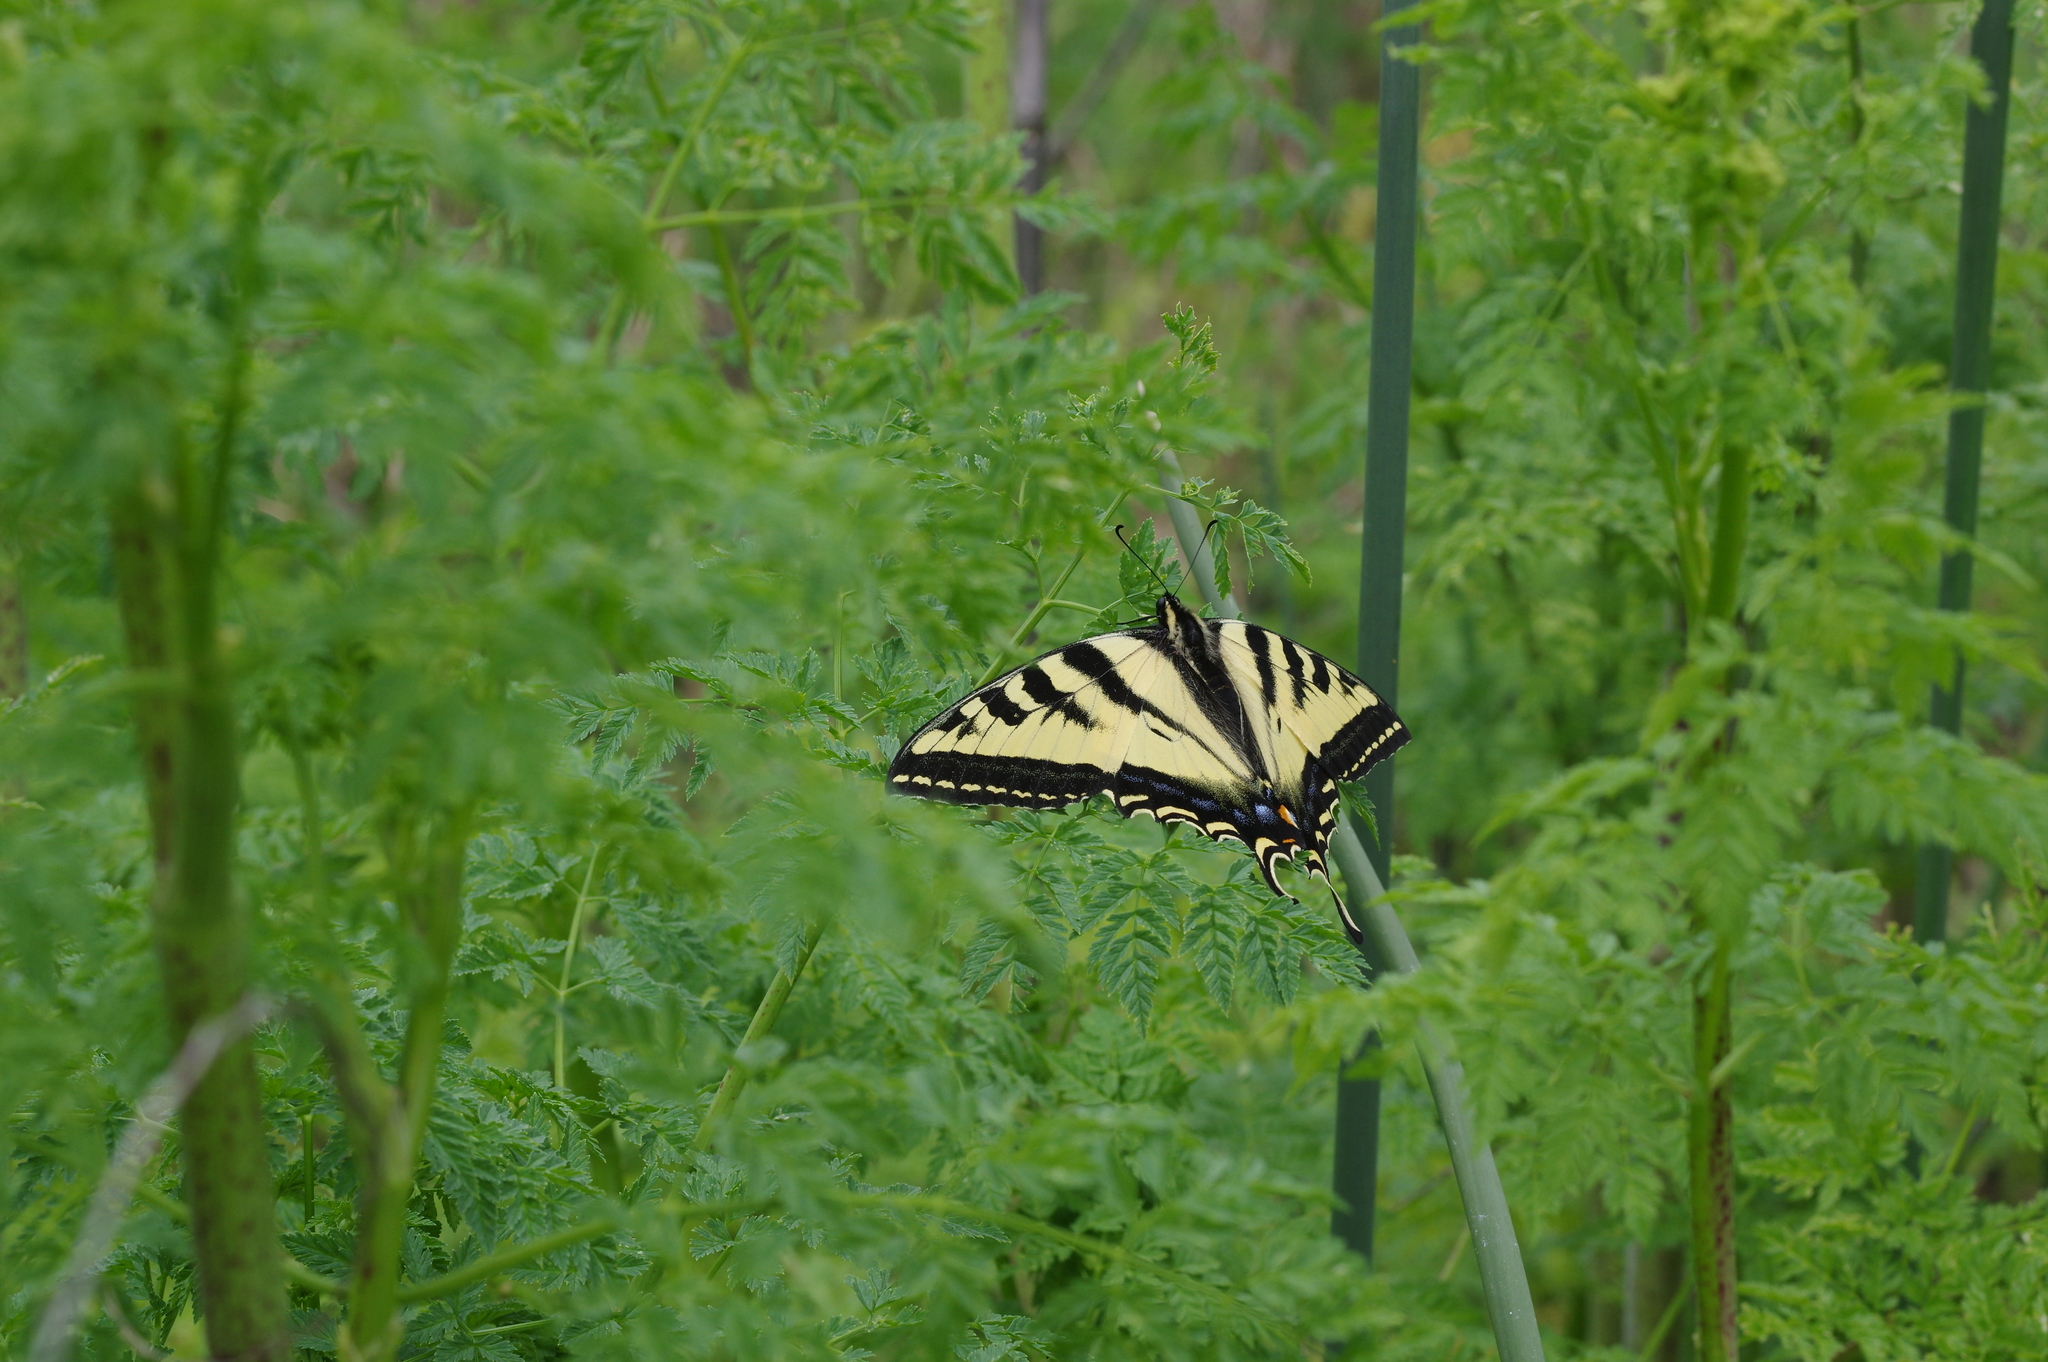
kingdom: Animalia
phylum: Arthropoda
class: Insecta
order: Lepidoptera
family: Papilionidae
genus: Papilio
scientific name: Papilio rutulus
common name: Western tiger swallowtail
